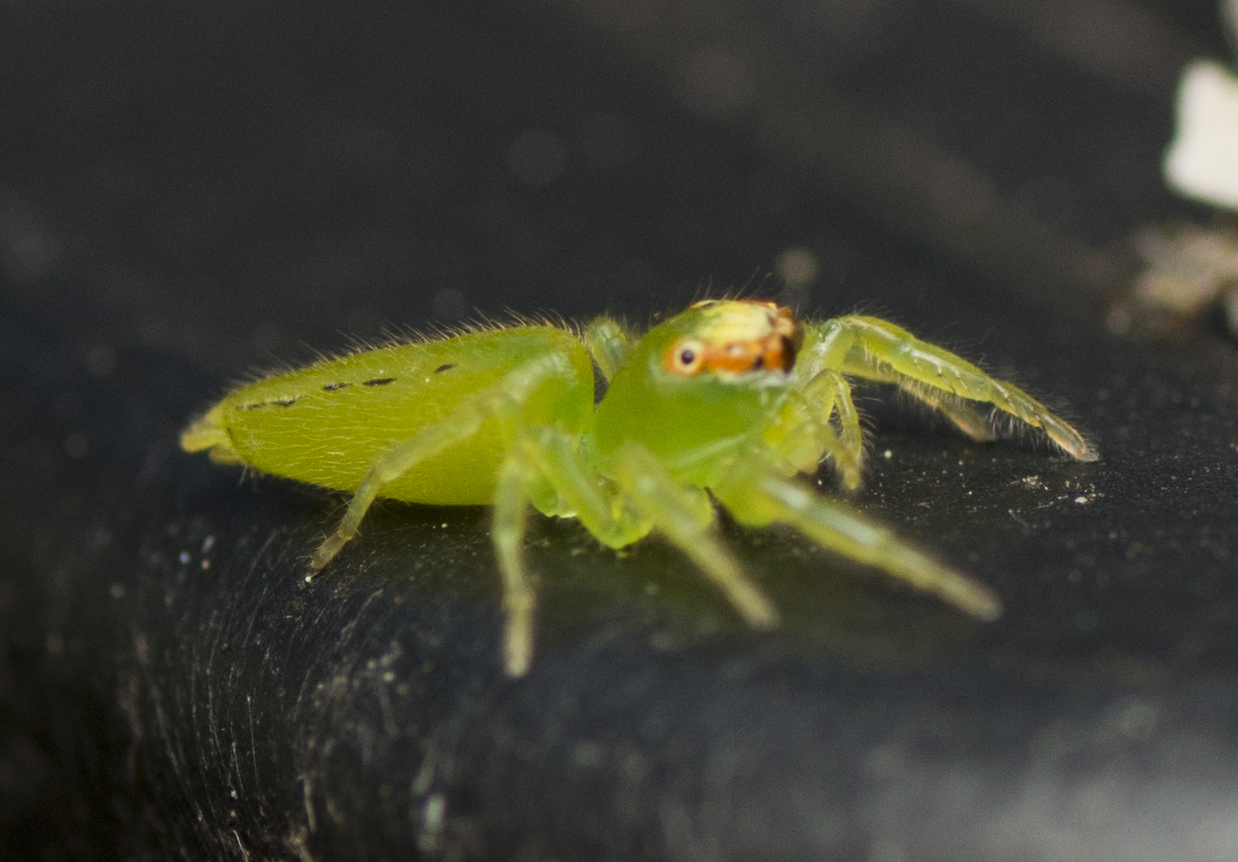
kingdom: Animalia
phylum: Arthropoda
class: Arachnida
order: Araneae
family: Salticidae
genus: Mopsus
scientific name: Mopsus mormon
